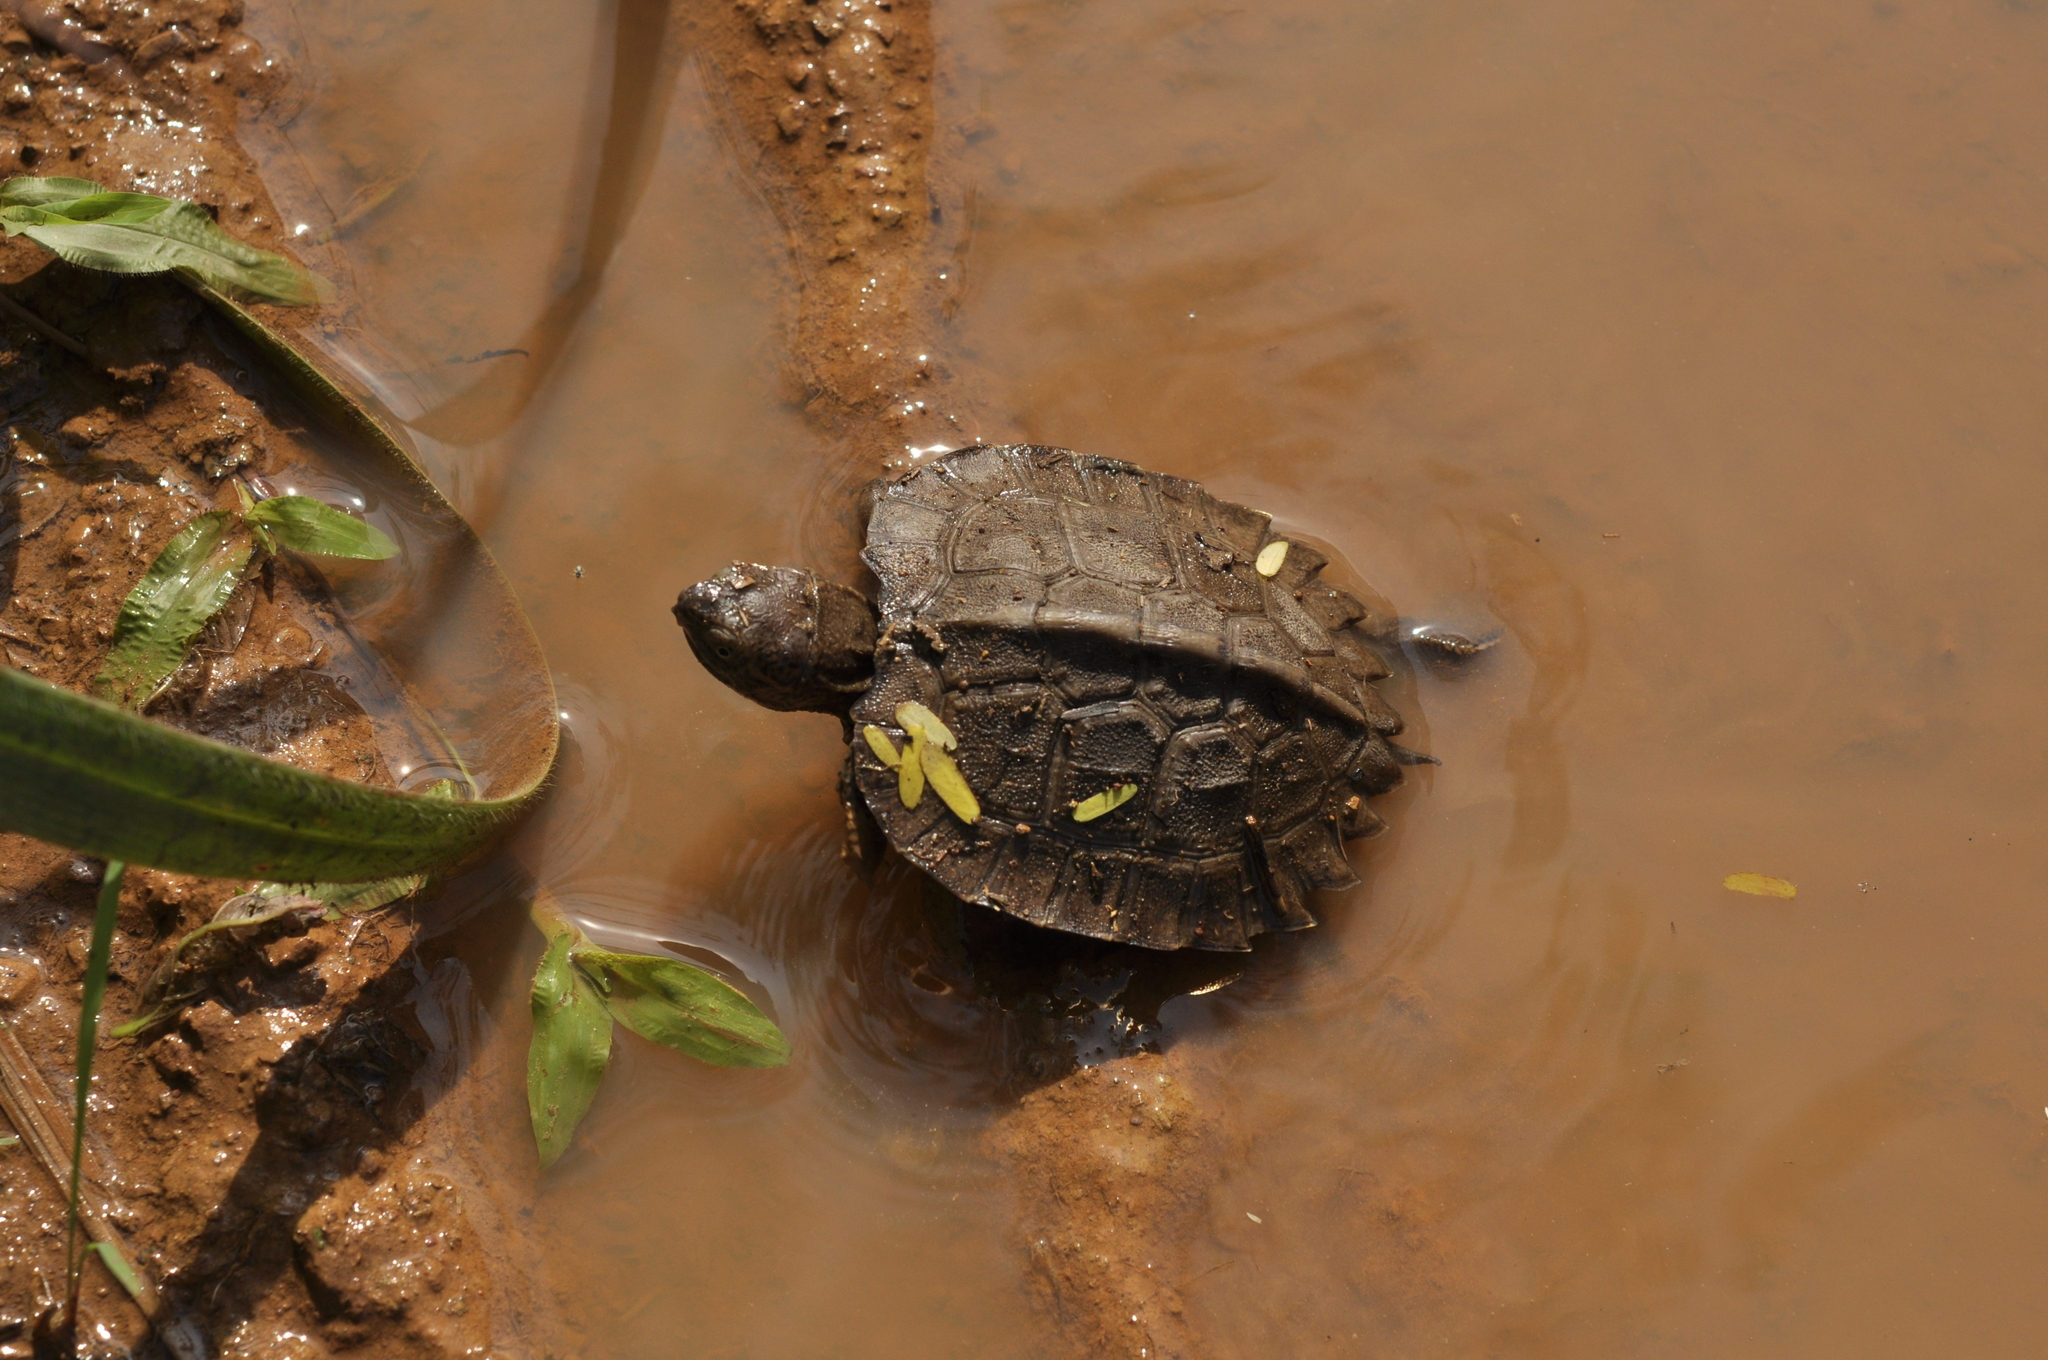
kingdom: Animalia
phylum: Chordata
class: Testudines
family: Geoemydidae
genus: Heosemys
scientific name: Heosemys grandis
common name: Giant asian pond turtle
